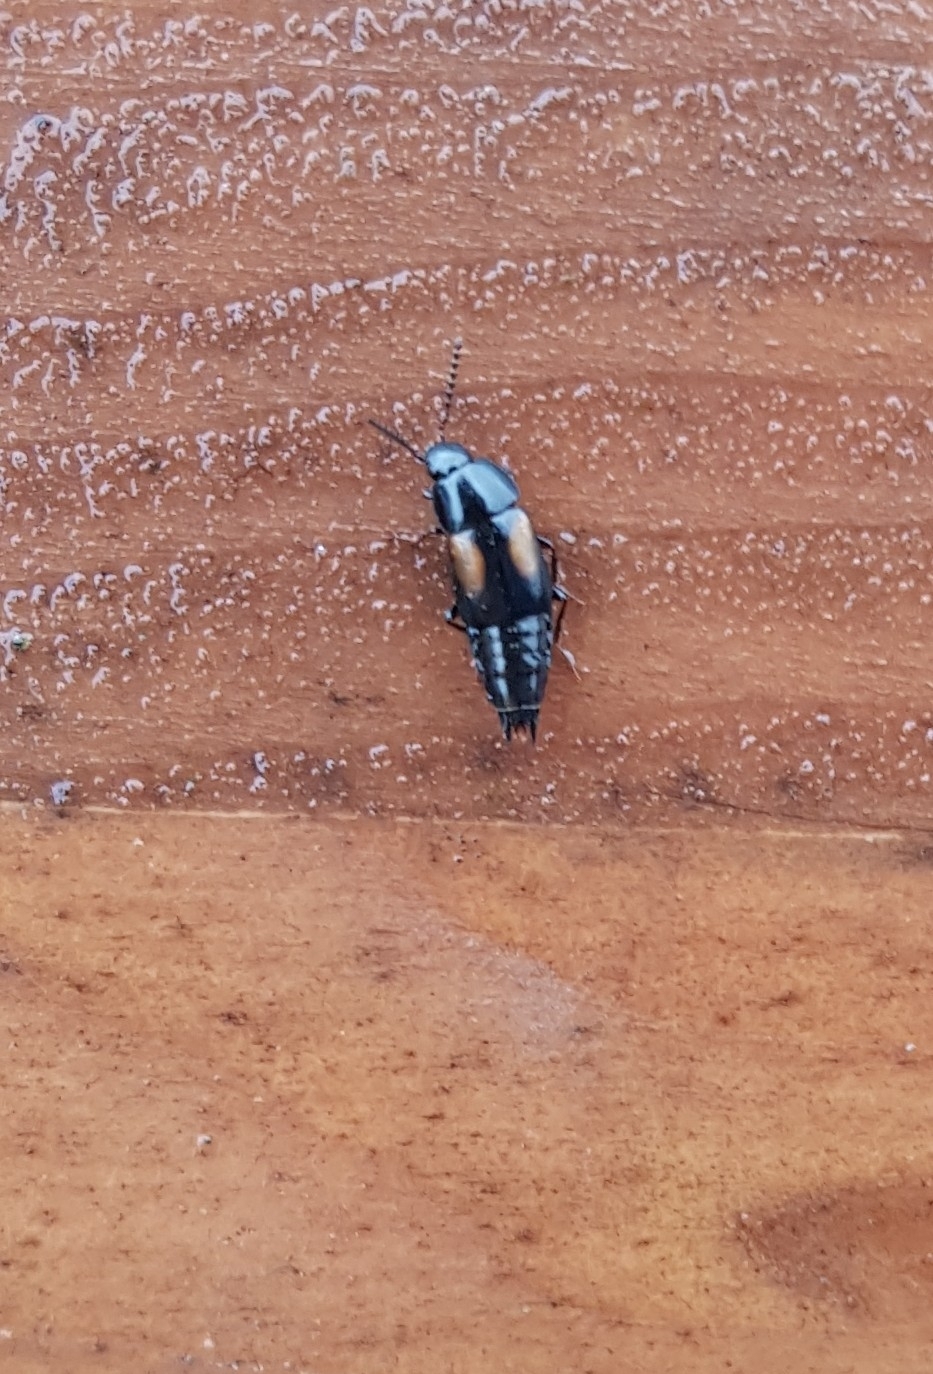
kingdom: Animalia
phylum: Arthropoda
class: Insecta
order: Coleoptera
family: Staphylinidae
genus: Tachinus
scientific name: Tachinus subterraneus
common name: Staph beetle
